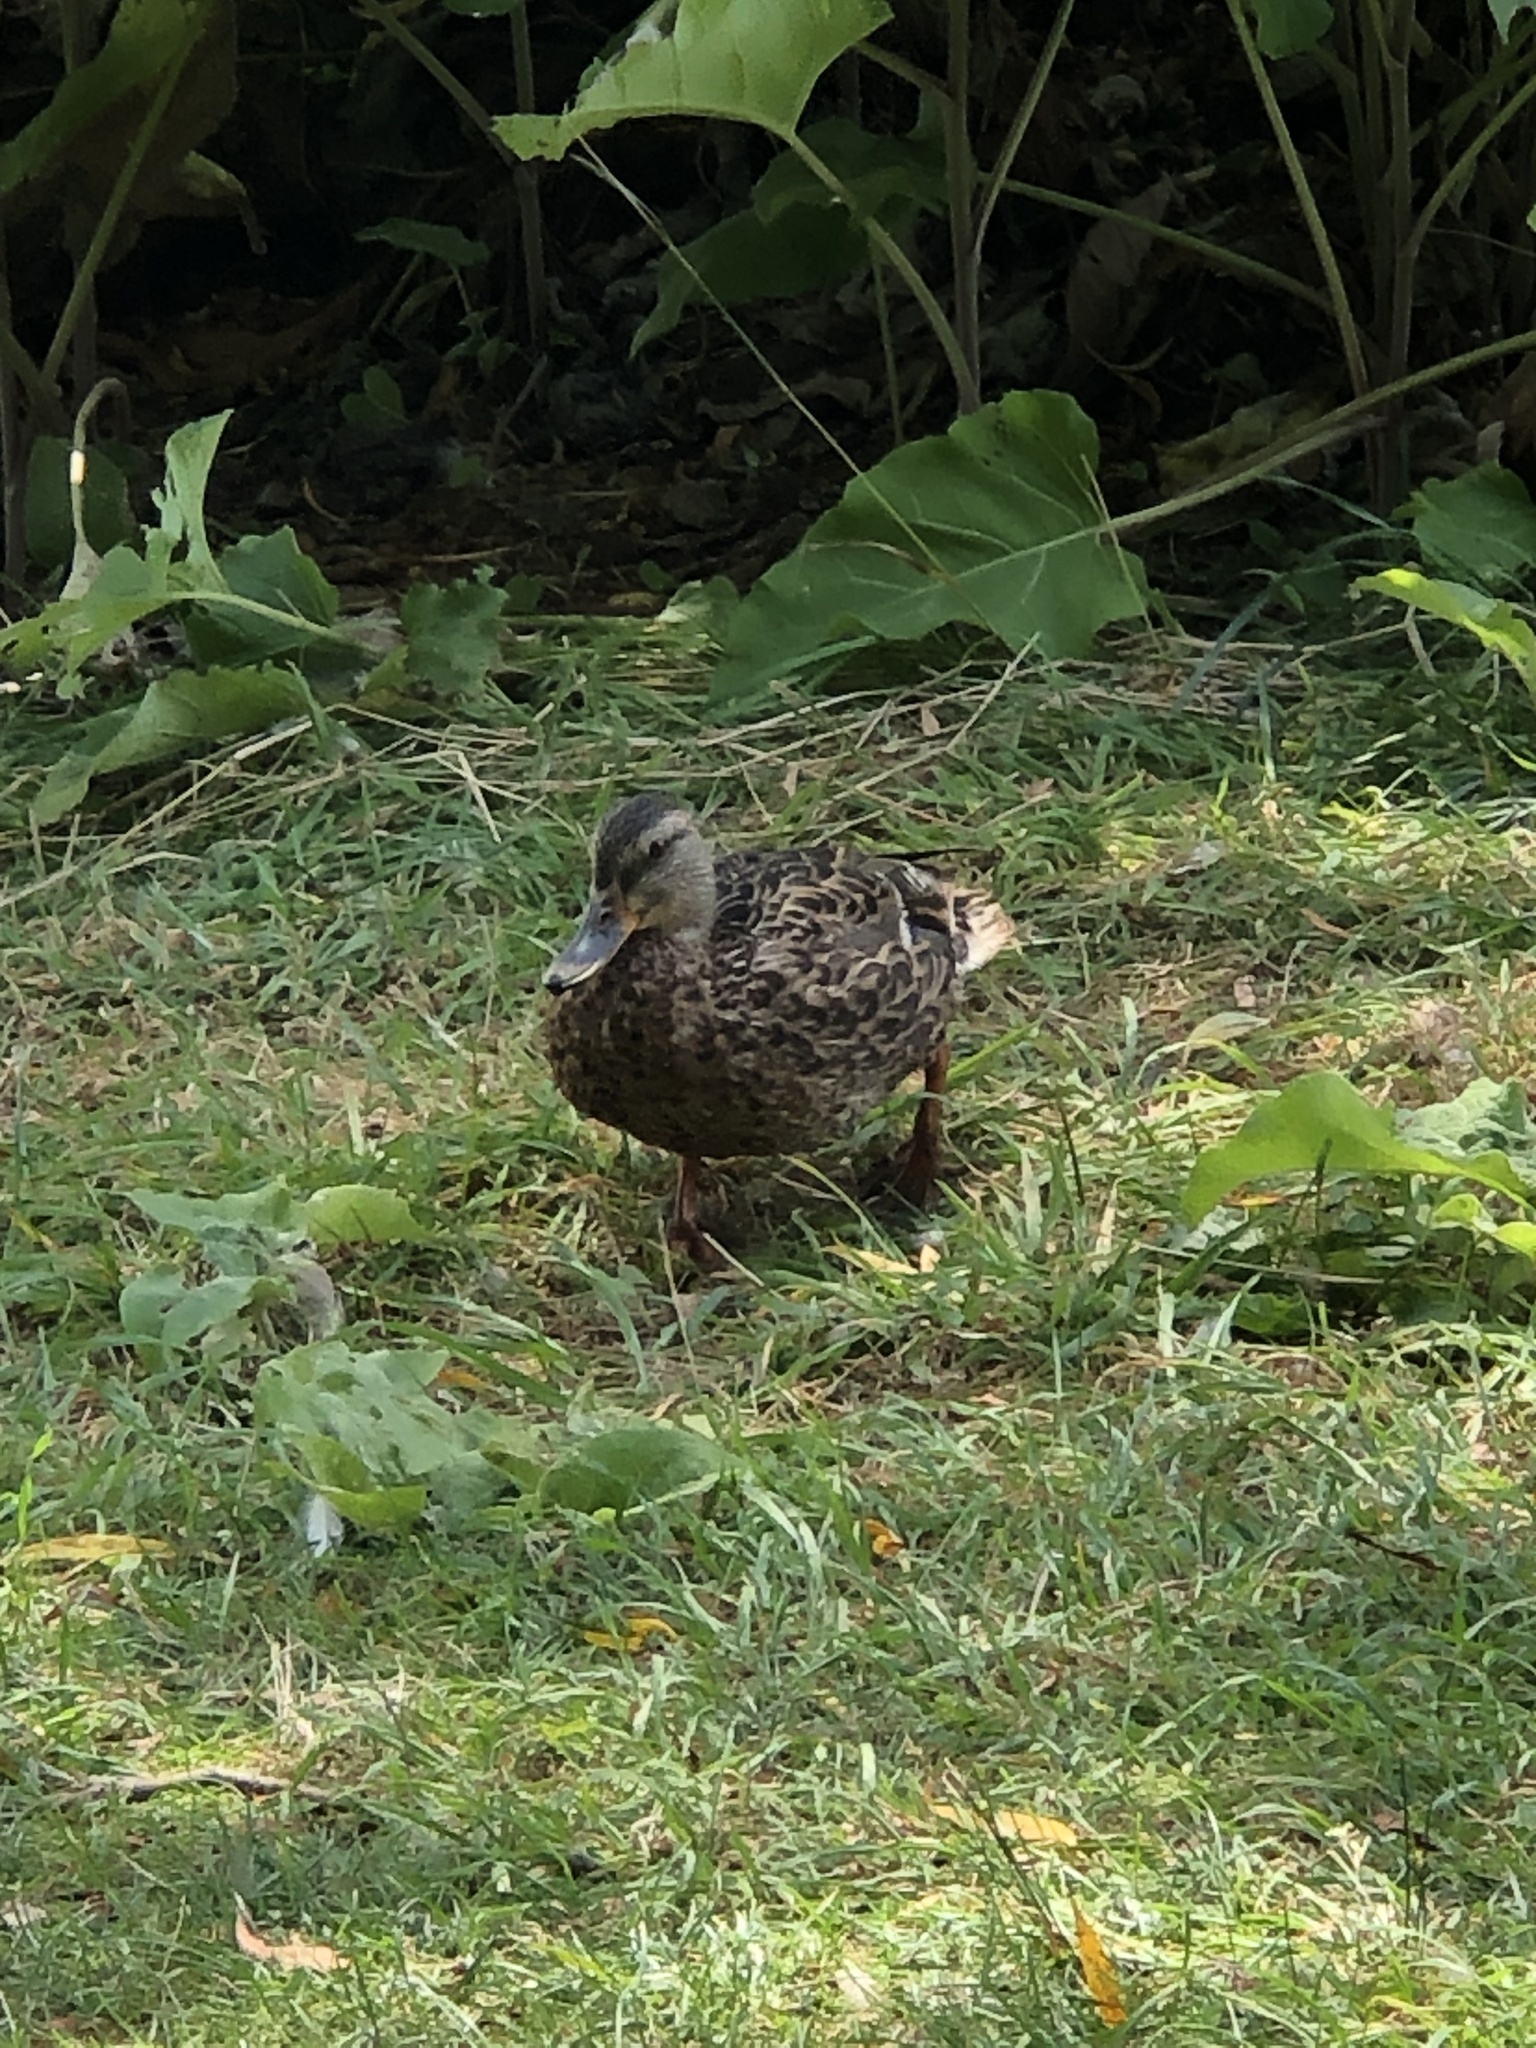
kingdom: Animalia
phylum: Chordata
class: Aves
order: Anseriformes
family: Anatidae
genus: Anas
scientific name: Anas platyrhynchos
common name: Mallard
